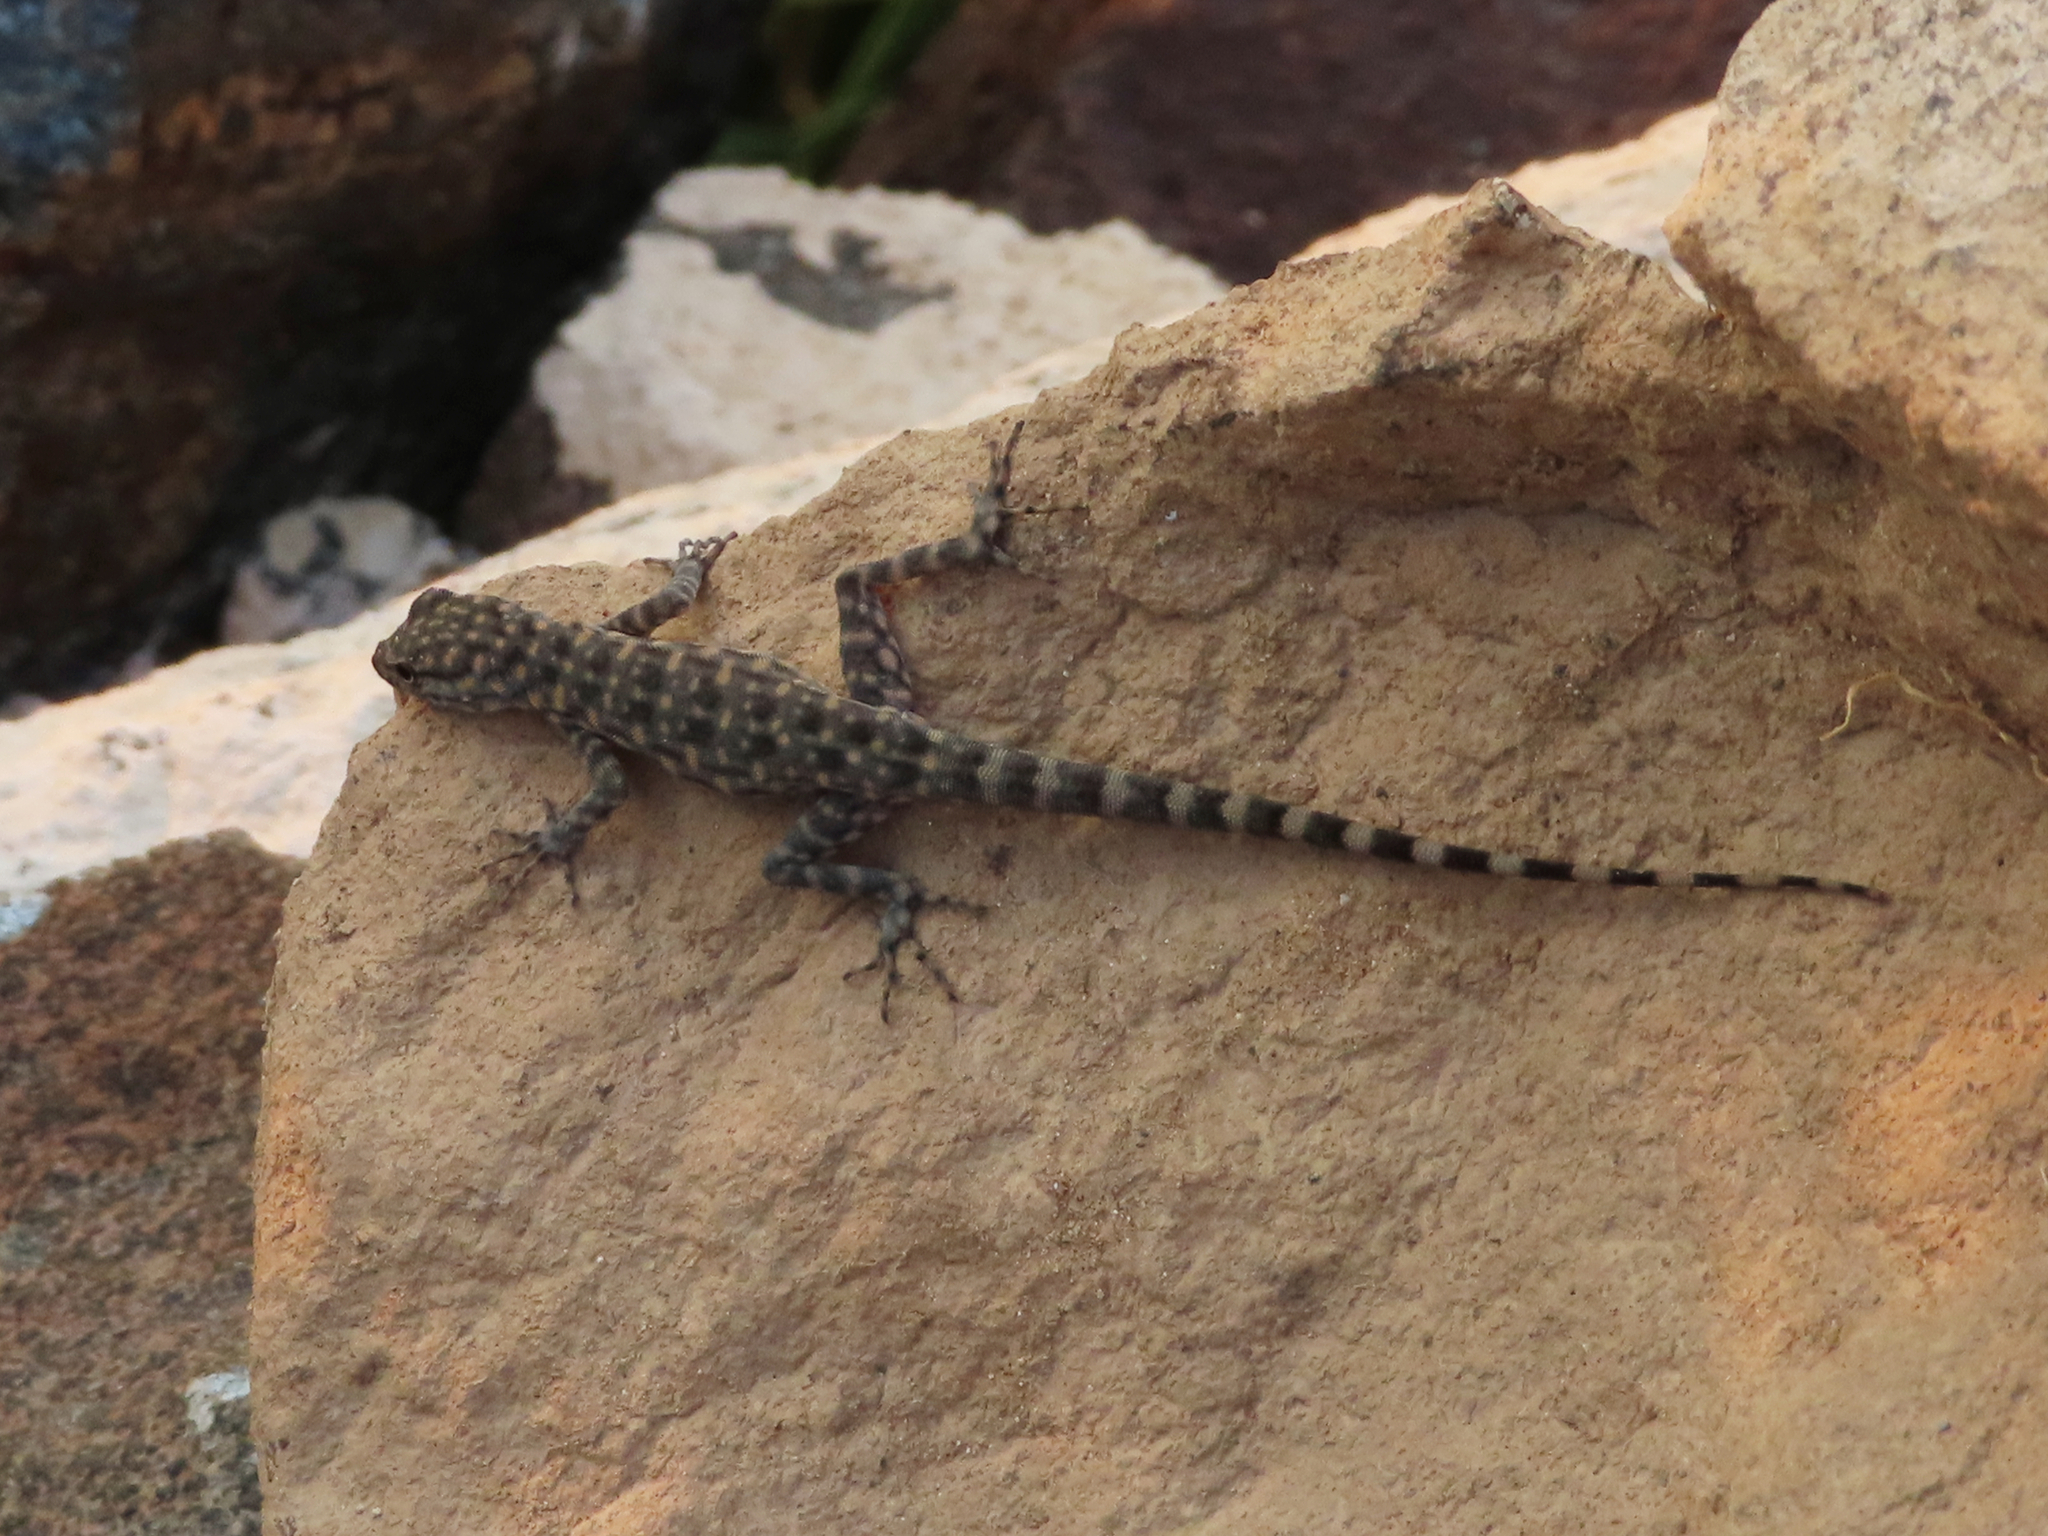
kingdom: Animalia
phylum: Chordata
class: Squamata
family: Sphaerodactylidae
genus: Pristurus
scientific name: Pristurus celerrimus
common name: Bar-tailed semaphore gecko
